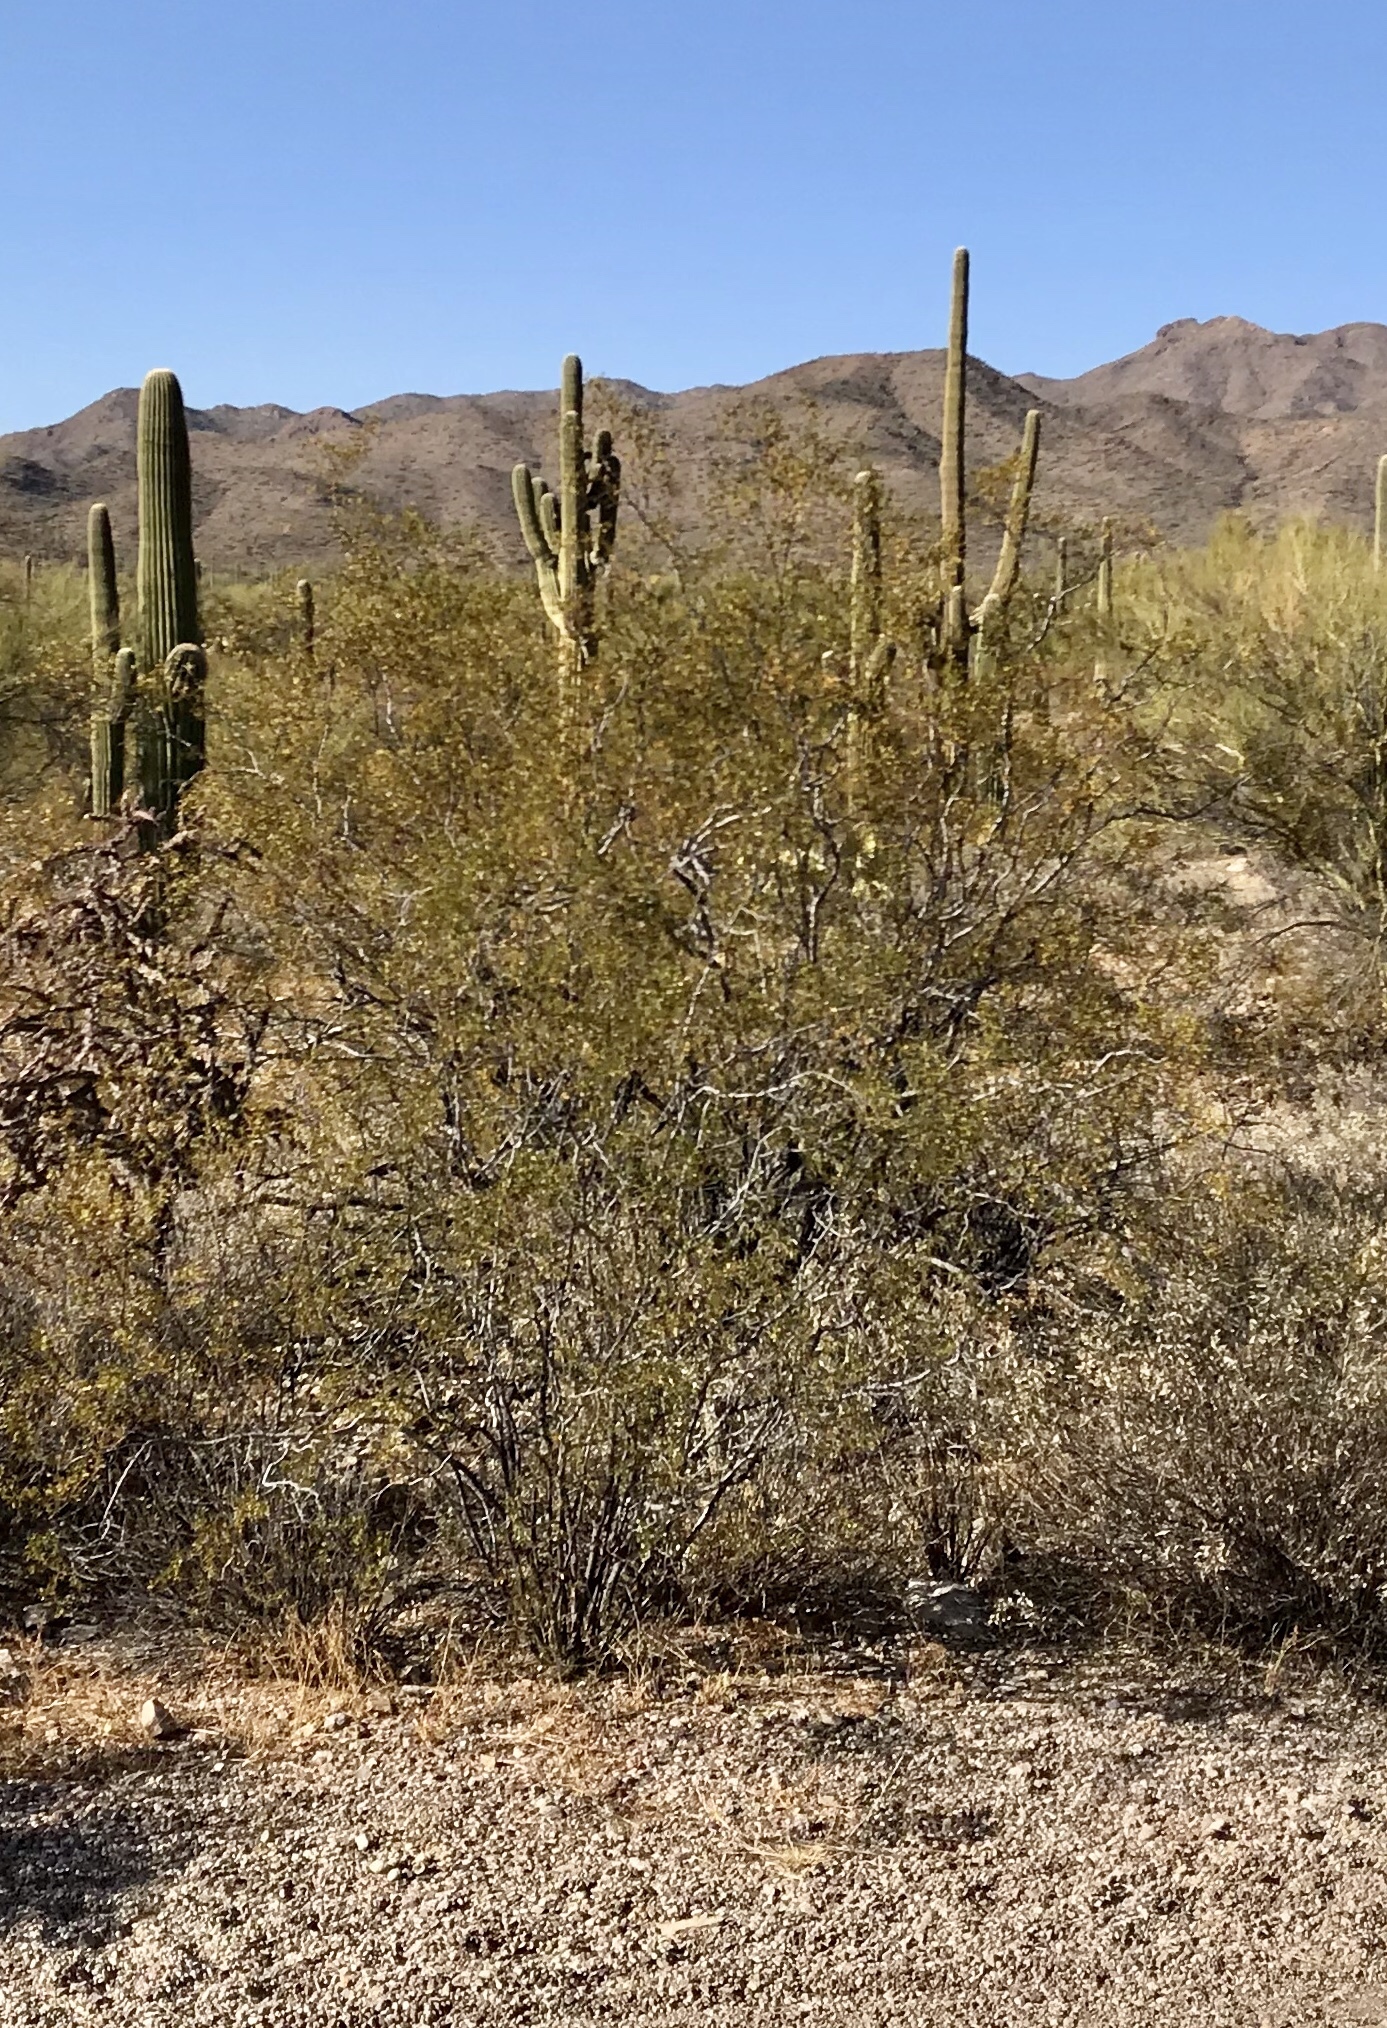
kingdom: Plantae
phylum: Tracheophyta
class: Magnoliopsida
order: Zygophyllales
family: Zygophyllaceae
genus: Larrea
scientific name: Larrea tridentata
